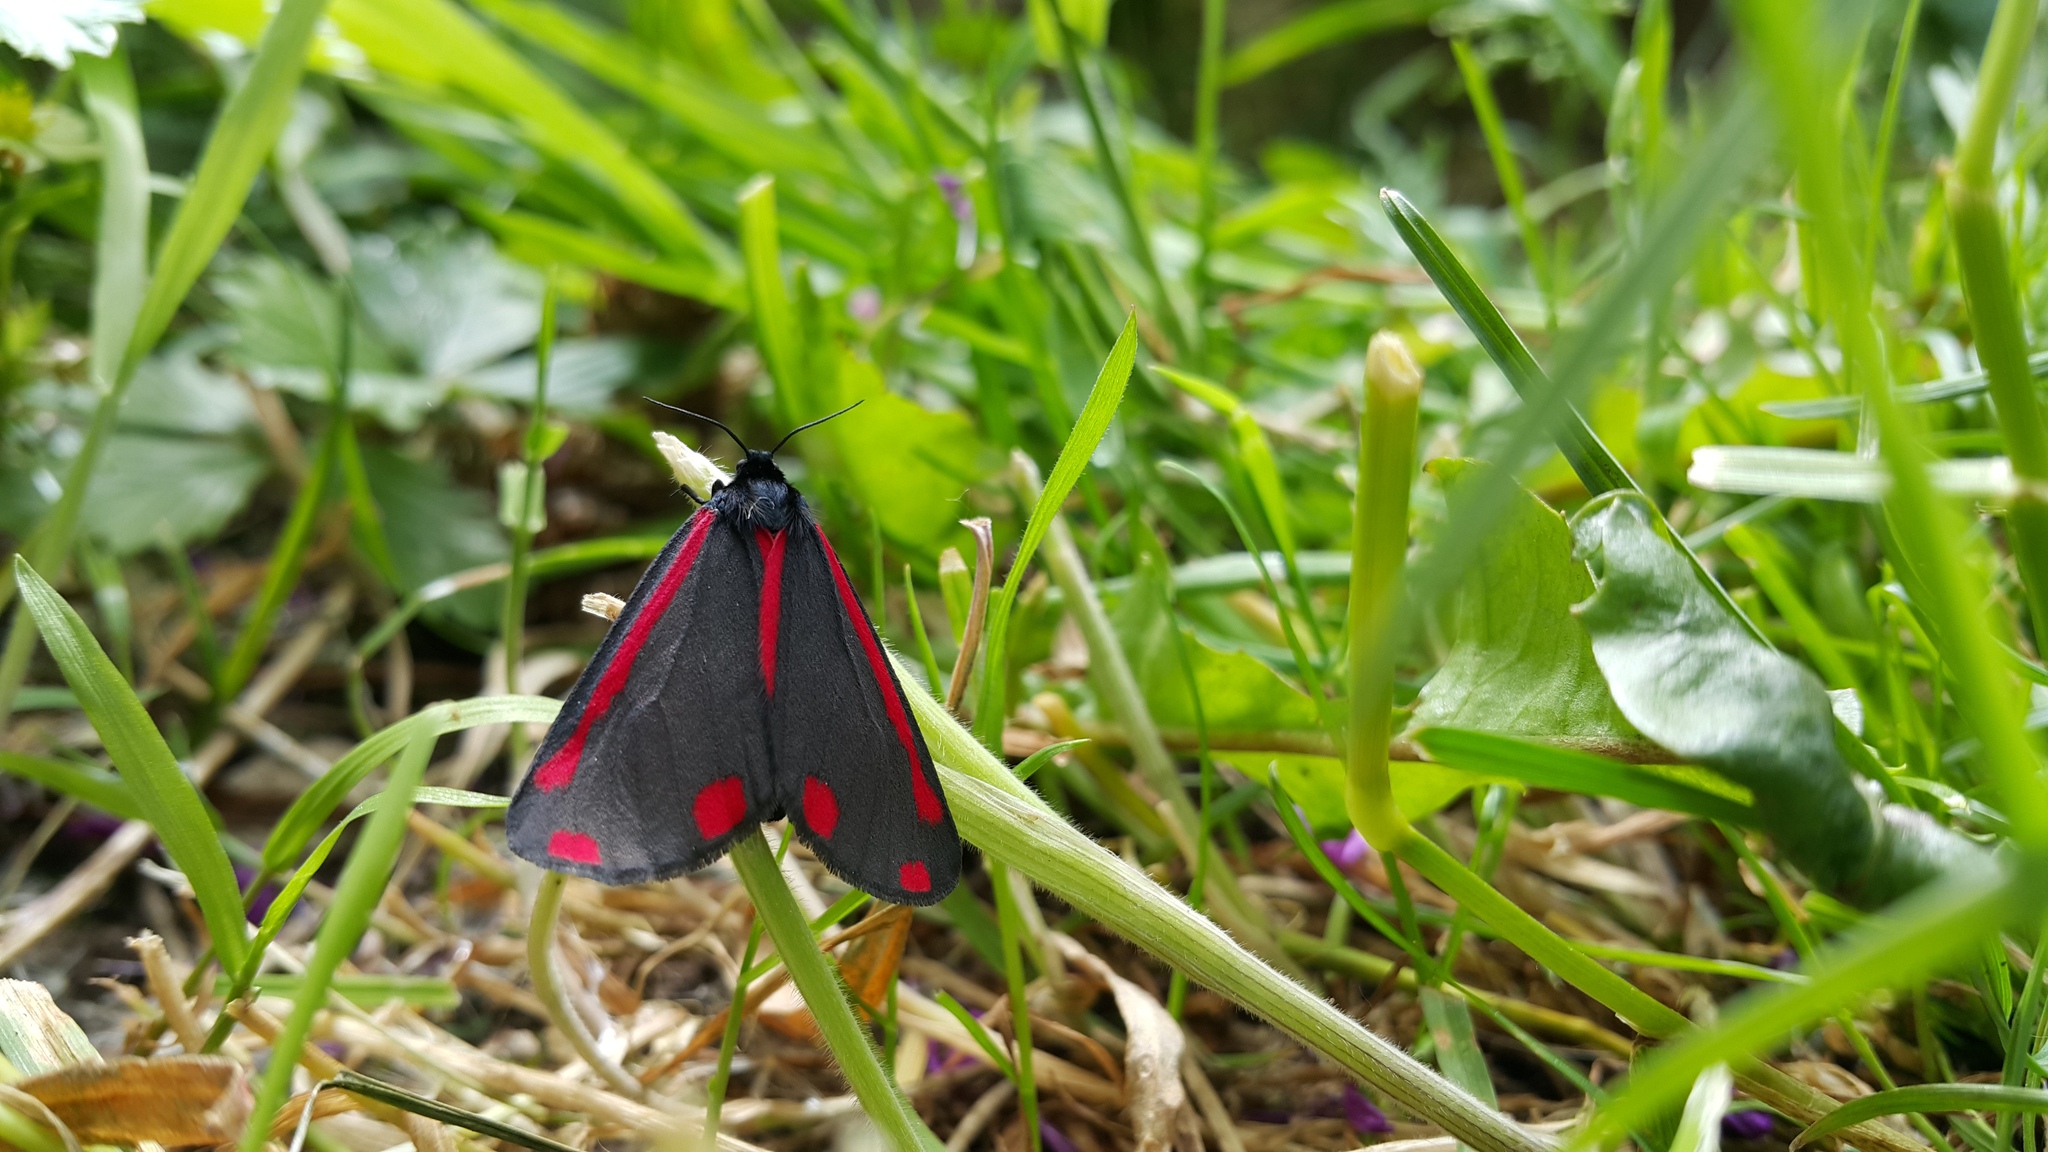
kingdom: Animalia
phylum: Arthropoda
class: Insecta
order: Lepidoptera
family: Erebidae
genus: Tyria
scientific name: Tyria jacobaeae
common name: Cinnabar
